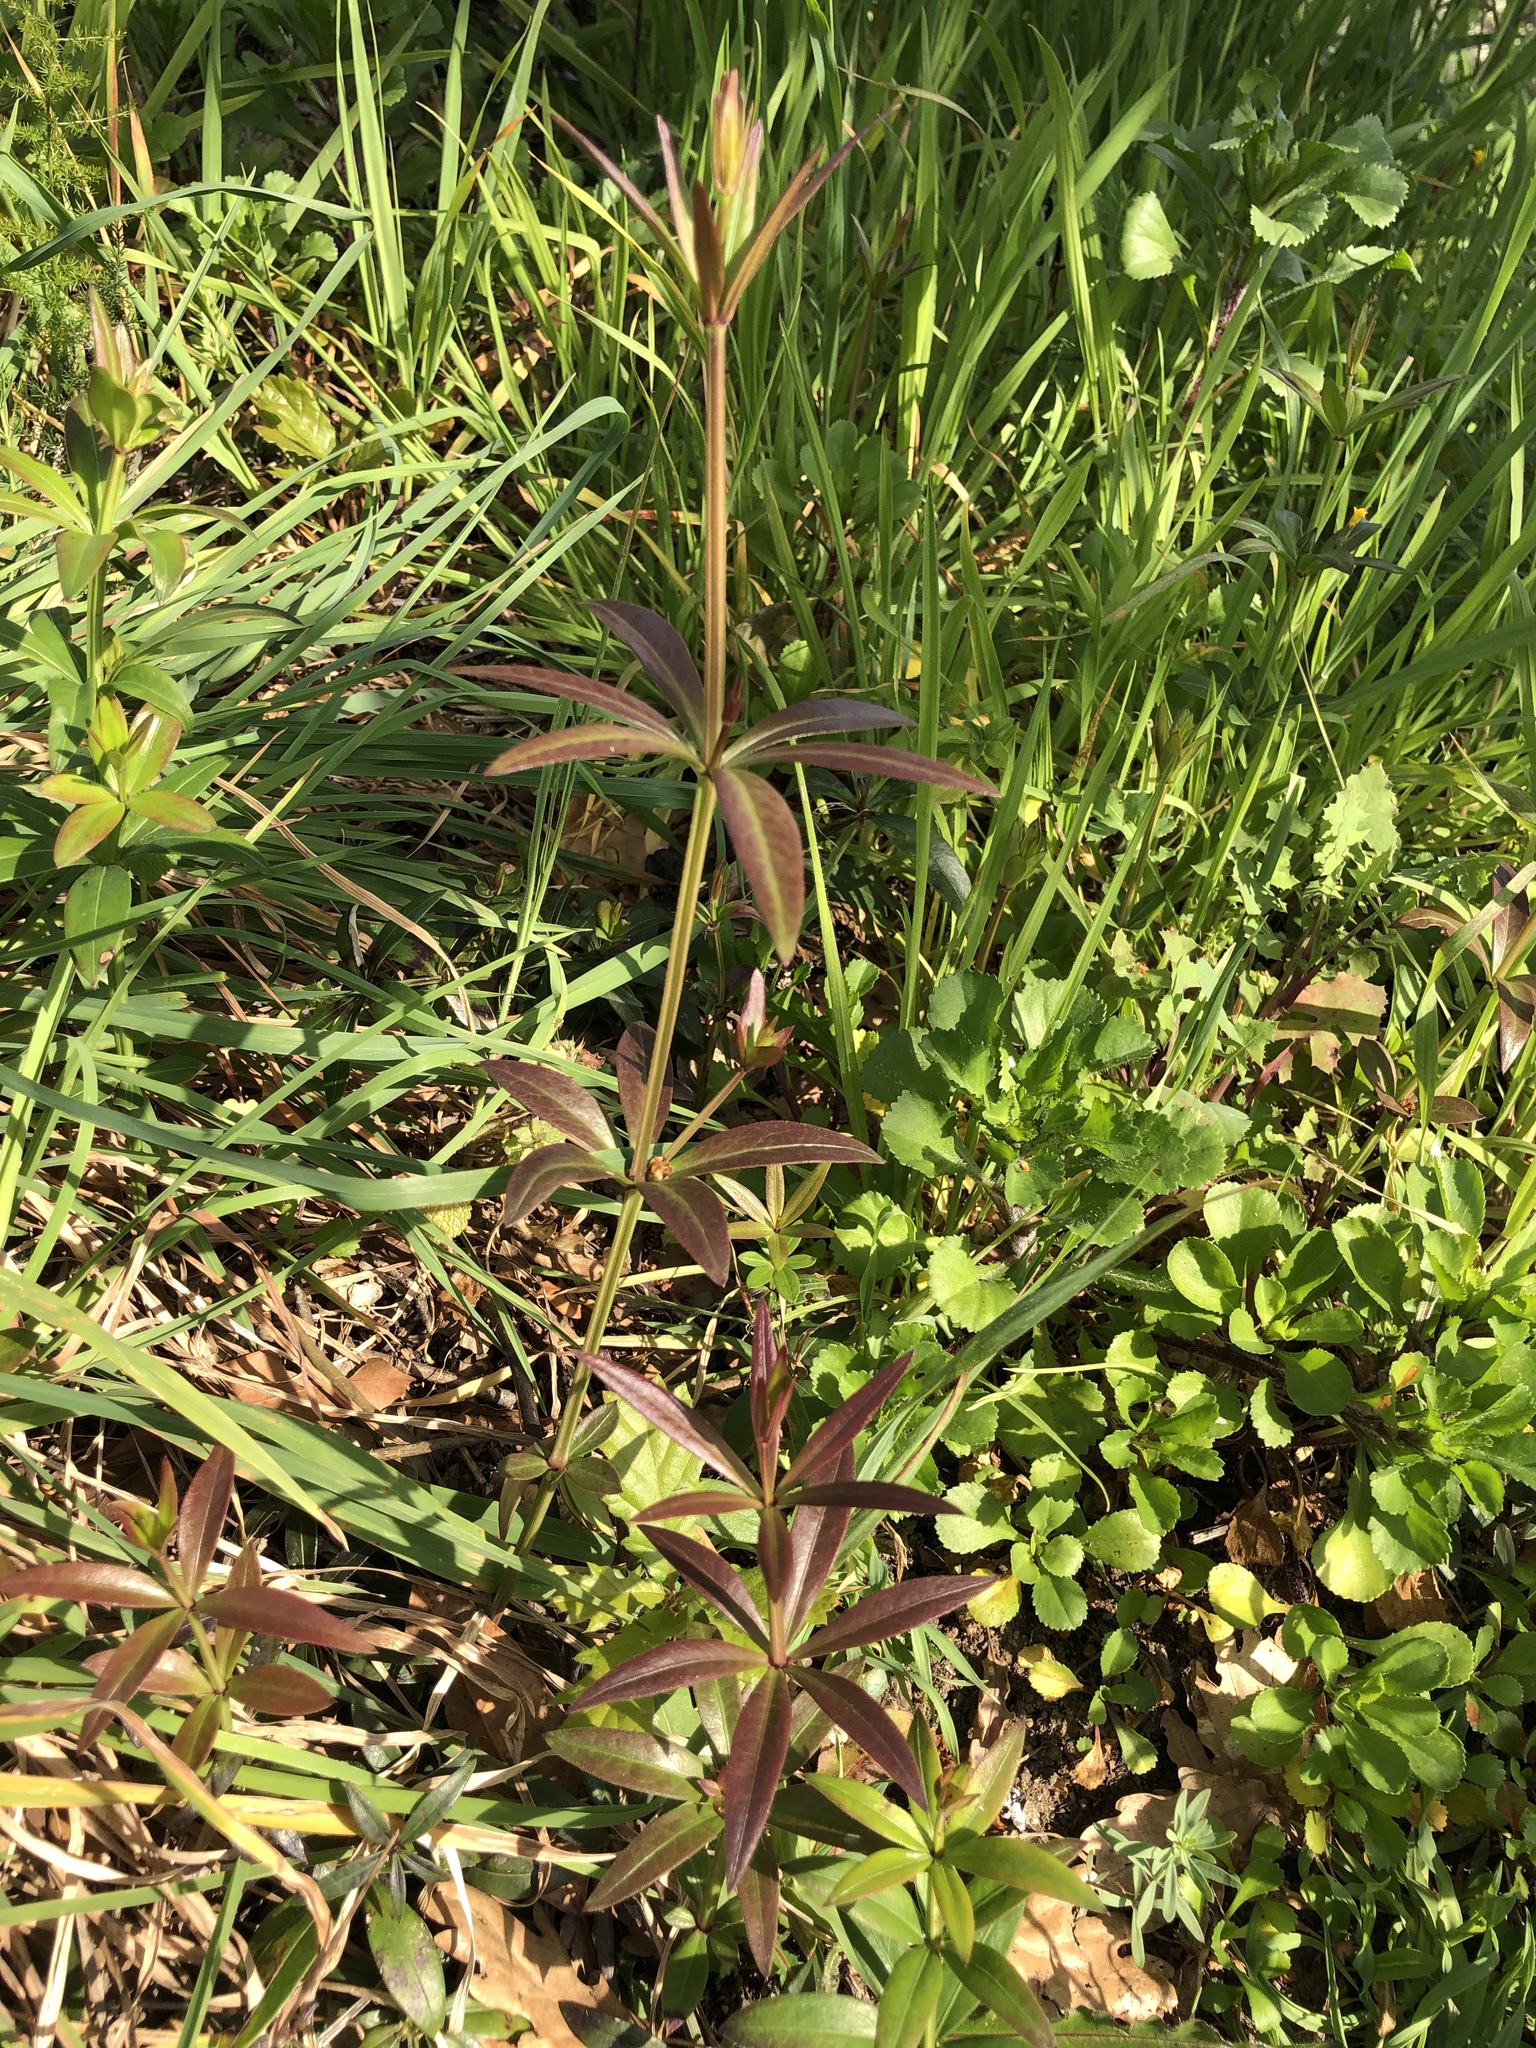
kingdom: Plantae
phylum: Tracheophyta
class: Magnoliopsida
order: Gentianales
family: Rubiaceae
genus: Rubia
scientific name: Rubia peregrina
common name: Wild madder
